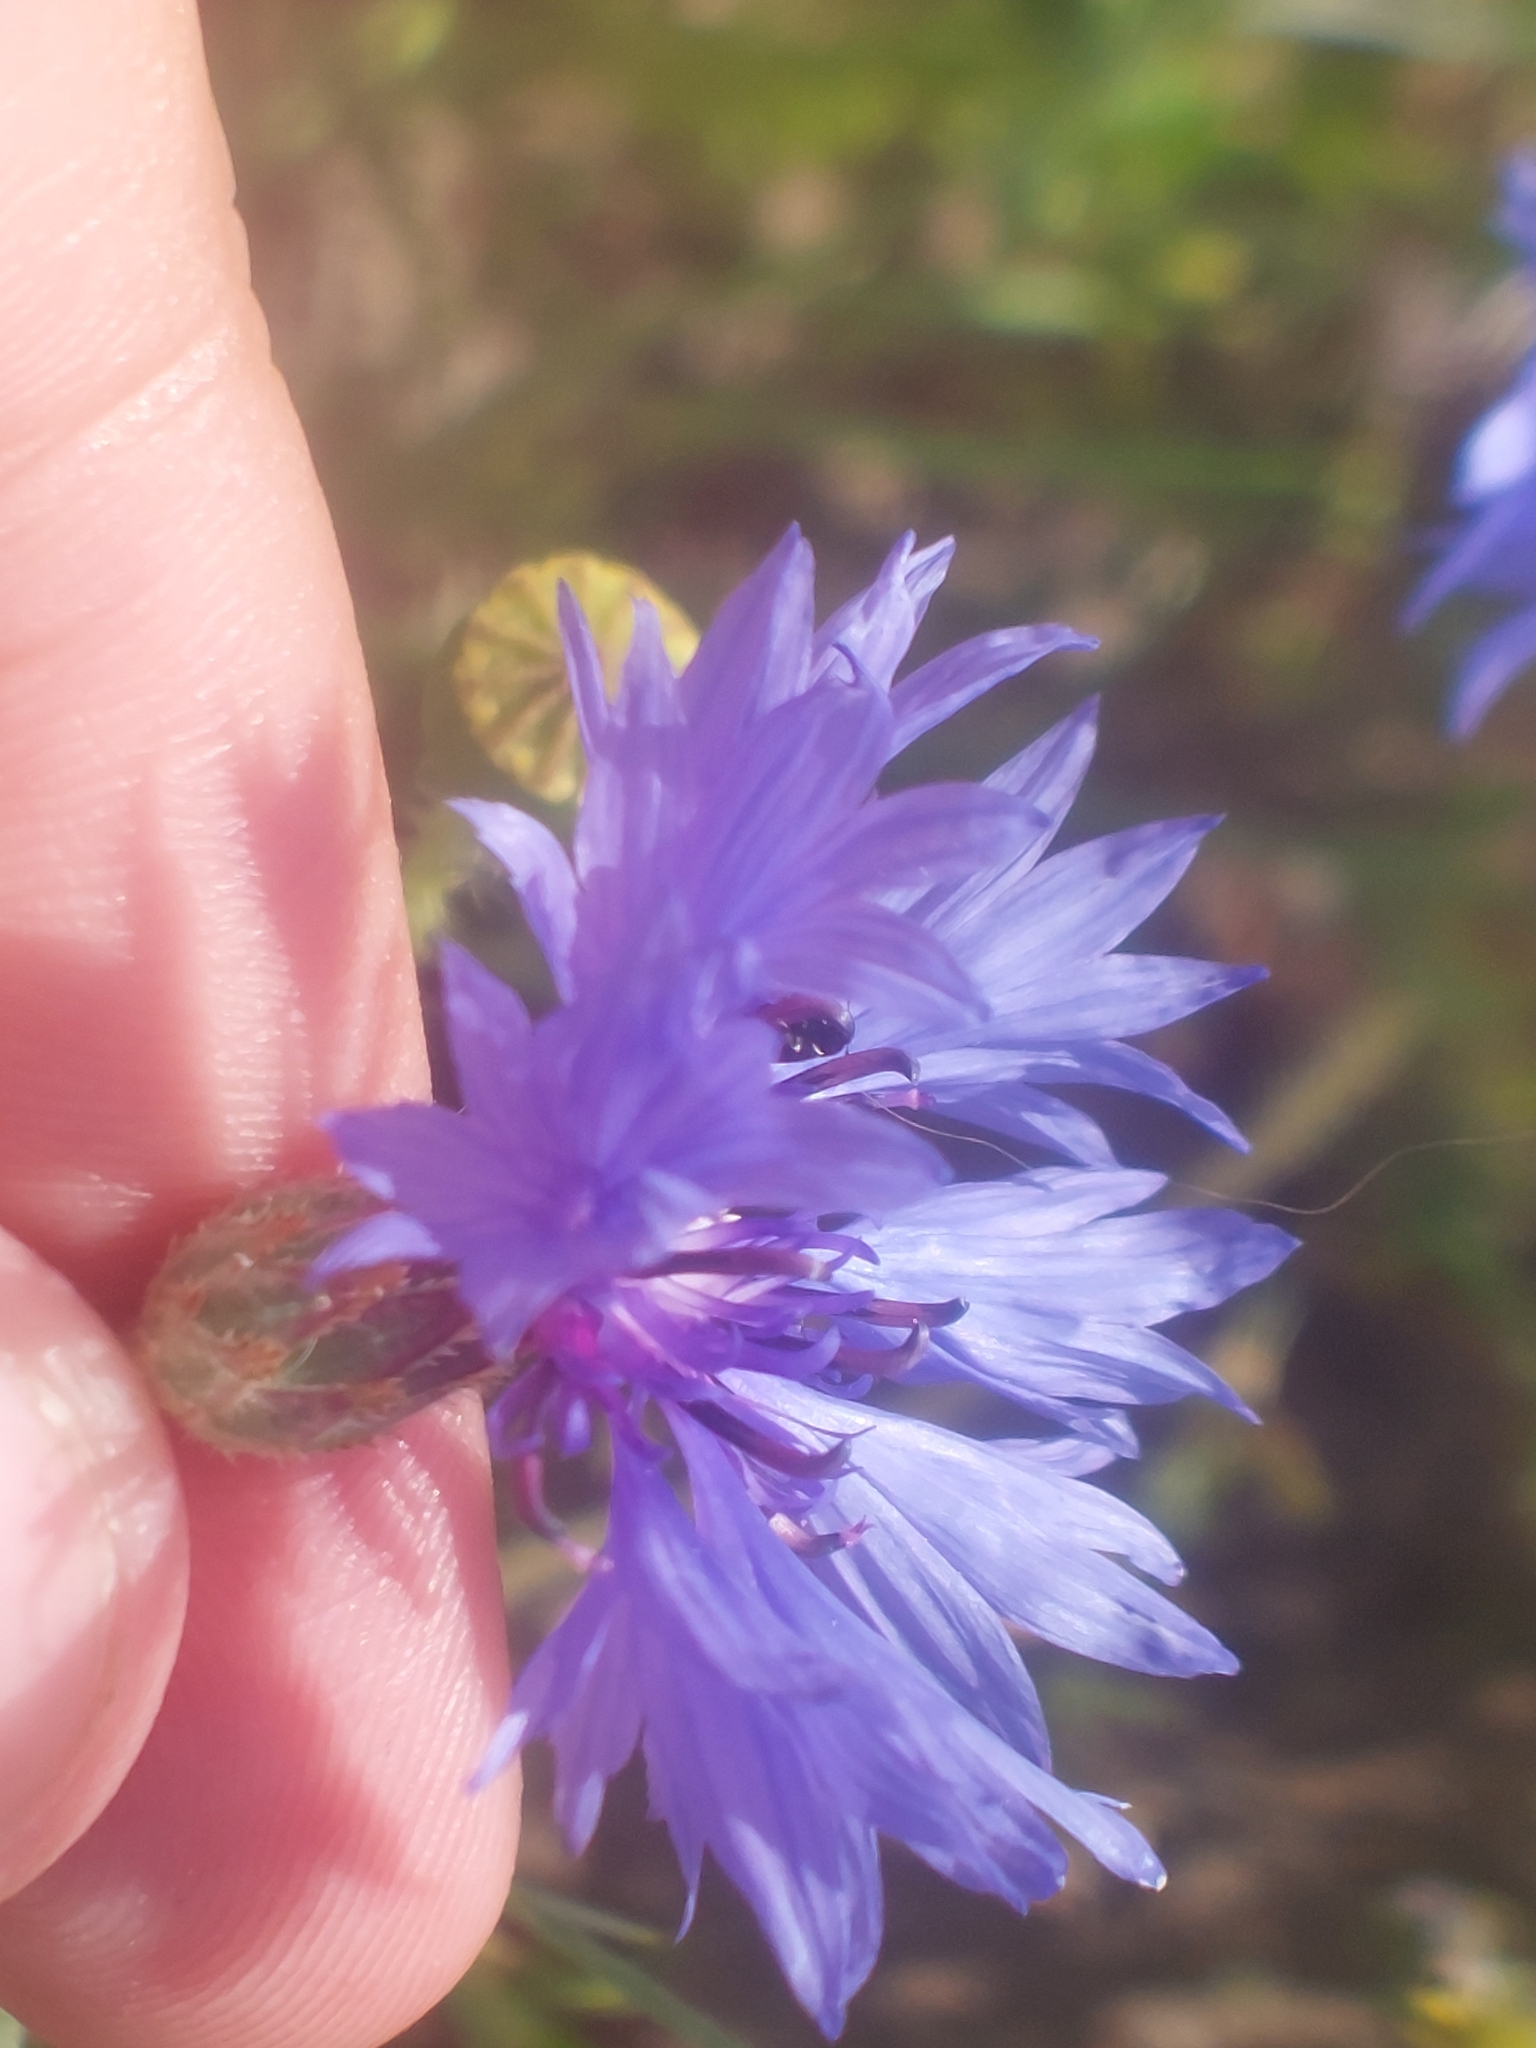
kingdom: Plantae
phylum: Tracheophyta
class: Magnoliopsida
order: Asterales
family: Asteraceae
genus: Centaurea
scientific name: Centaurea cyanus
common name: Cornflower
